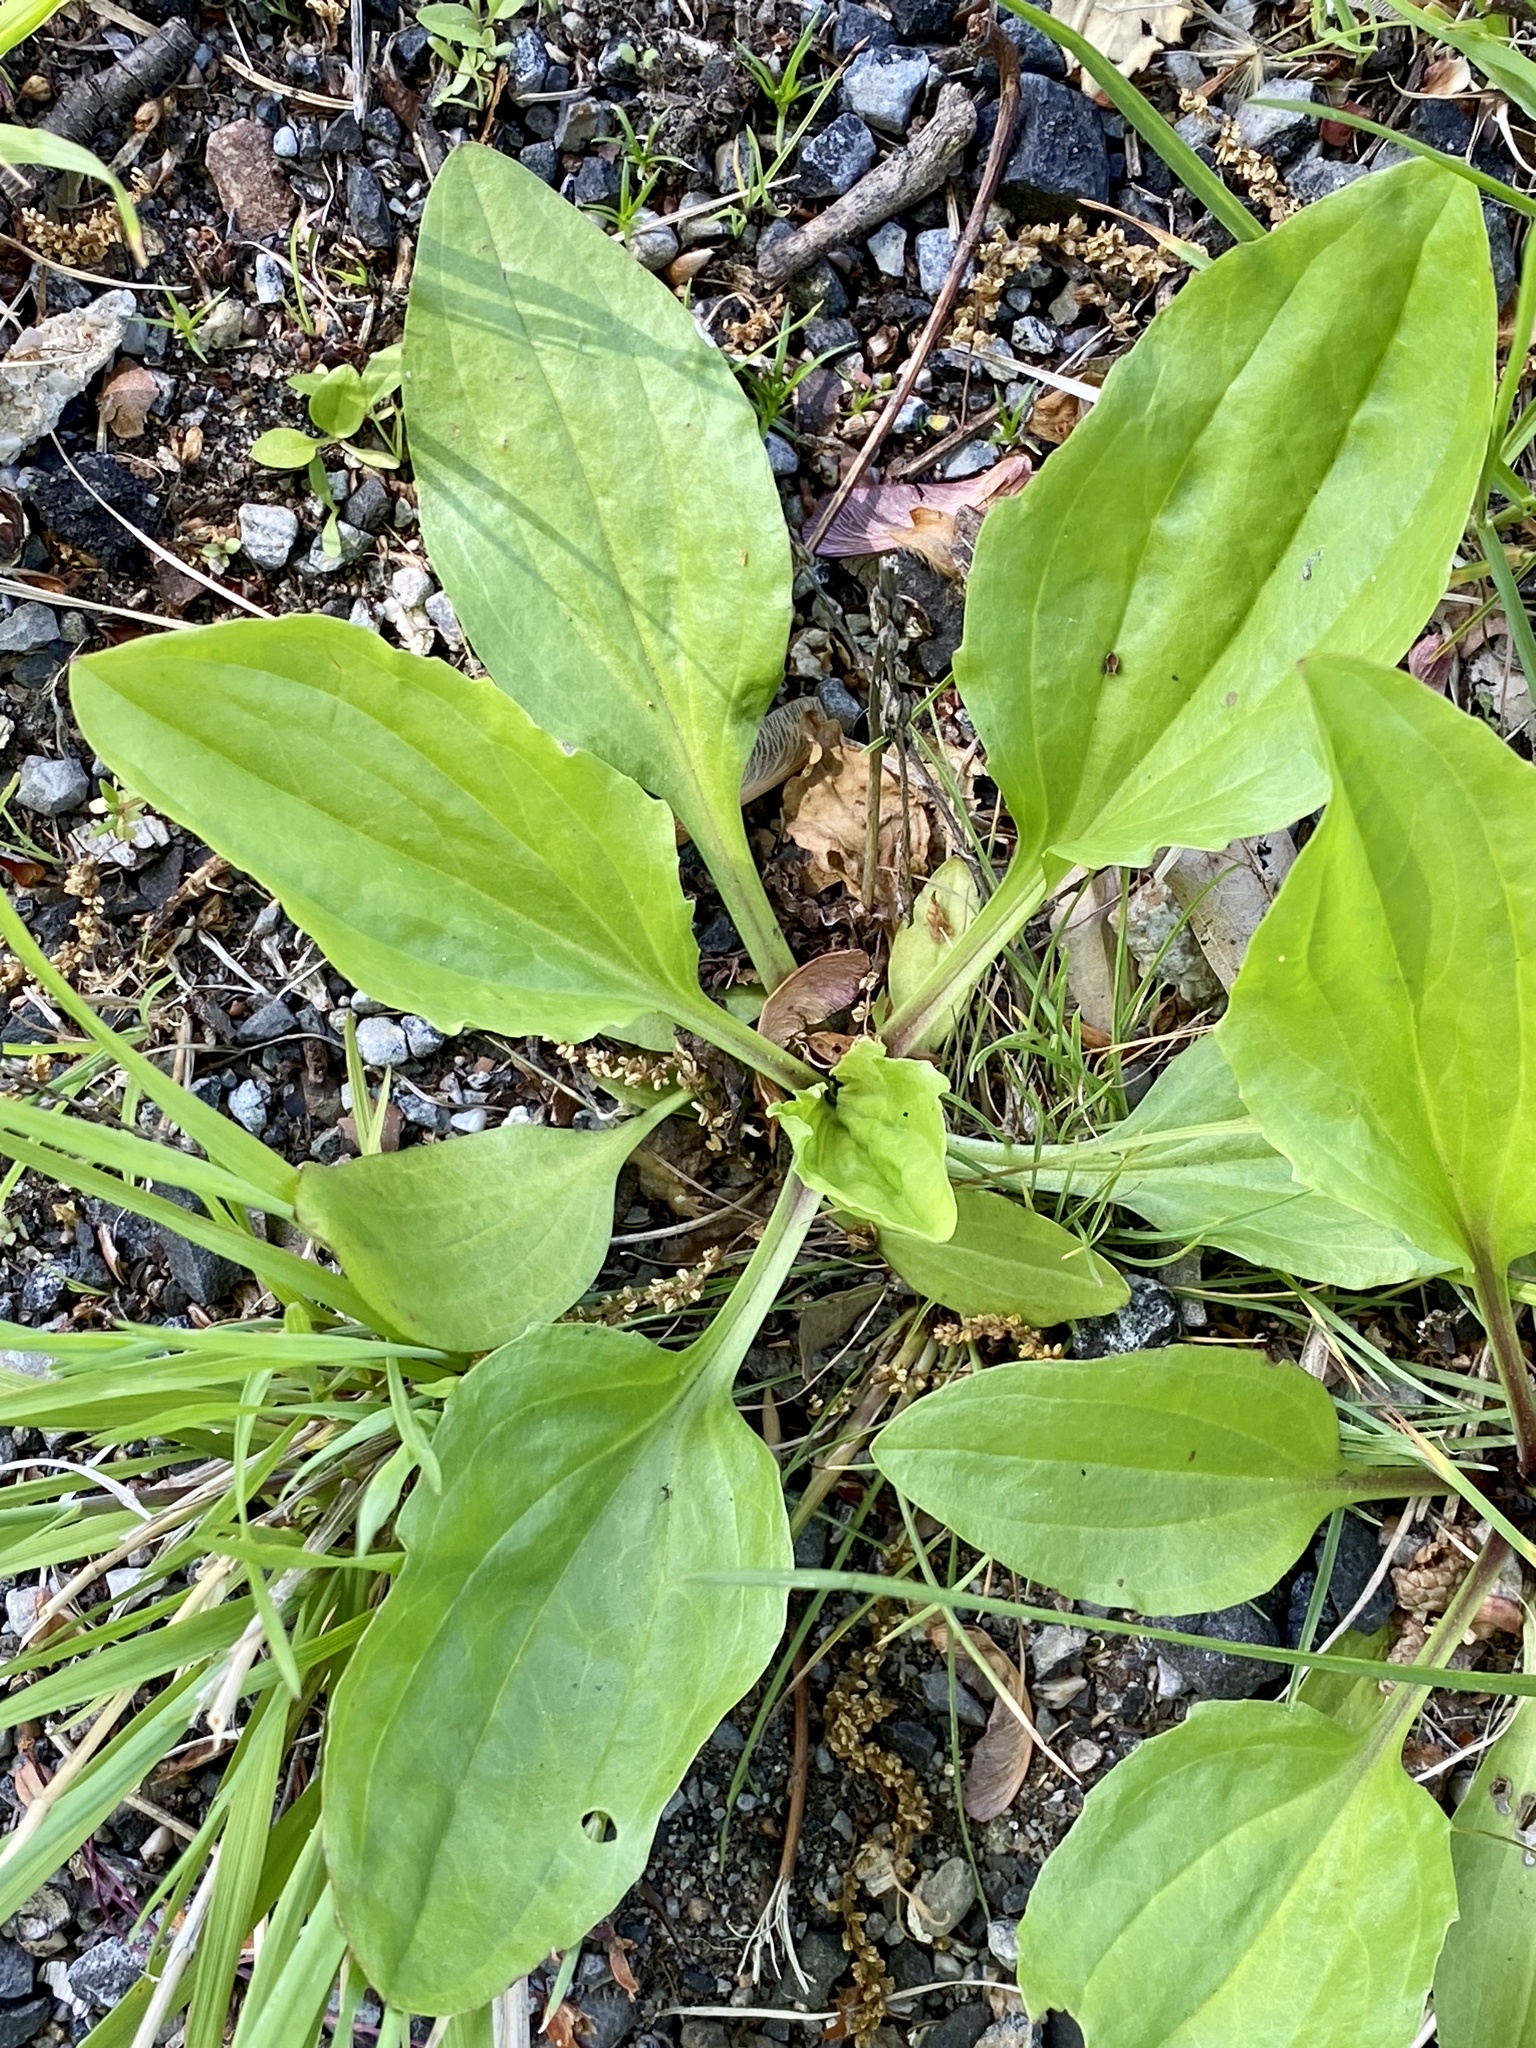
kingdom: Plantae
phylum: Tracheophyta
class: Magnoliopsida
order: Lamiales
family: Plantaginaceae
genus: Plantago
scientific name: Plantago rugelii
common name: American plantain
